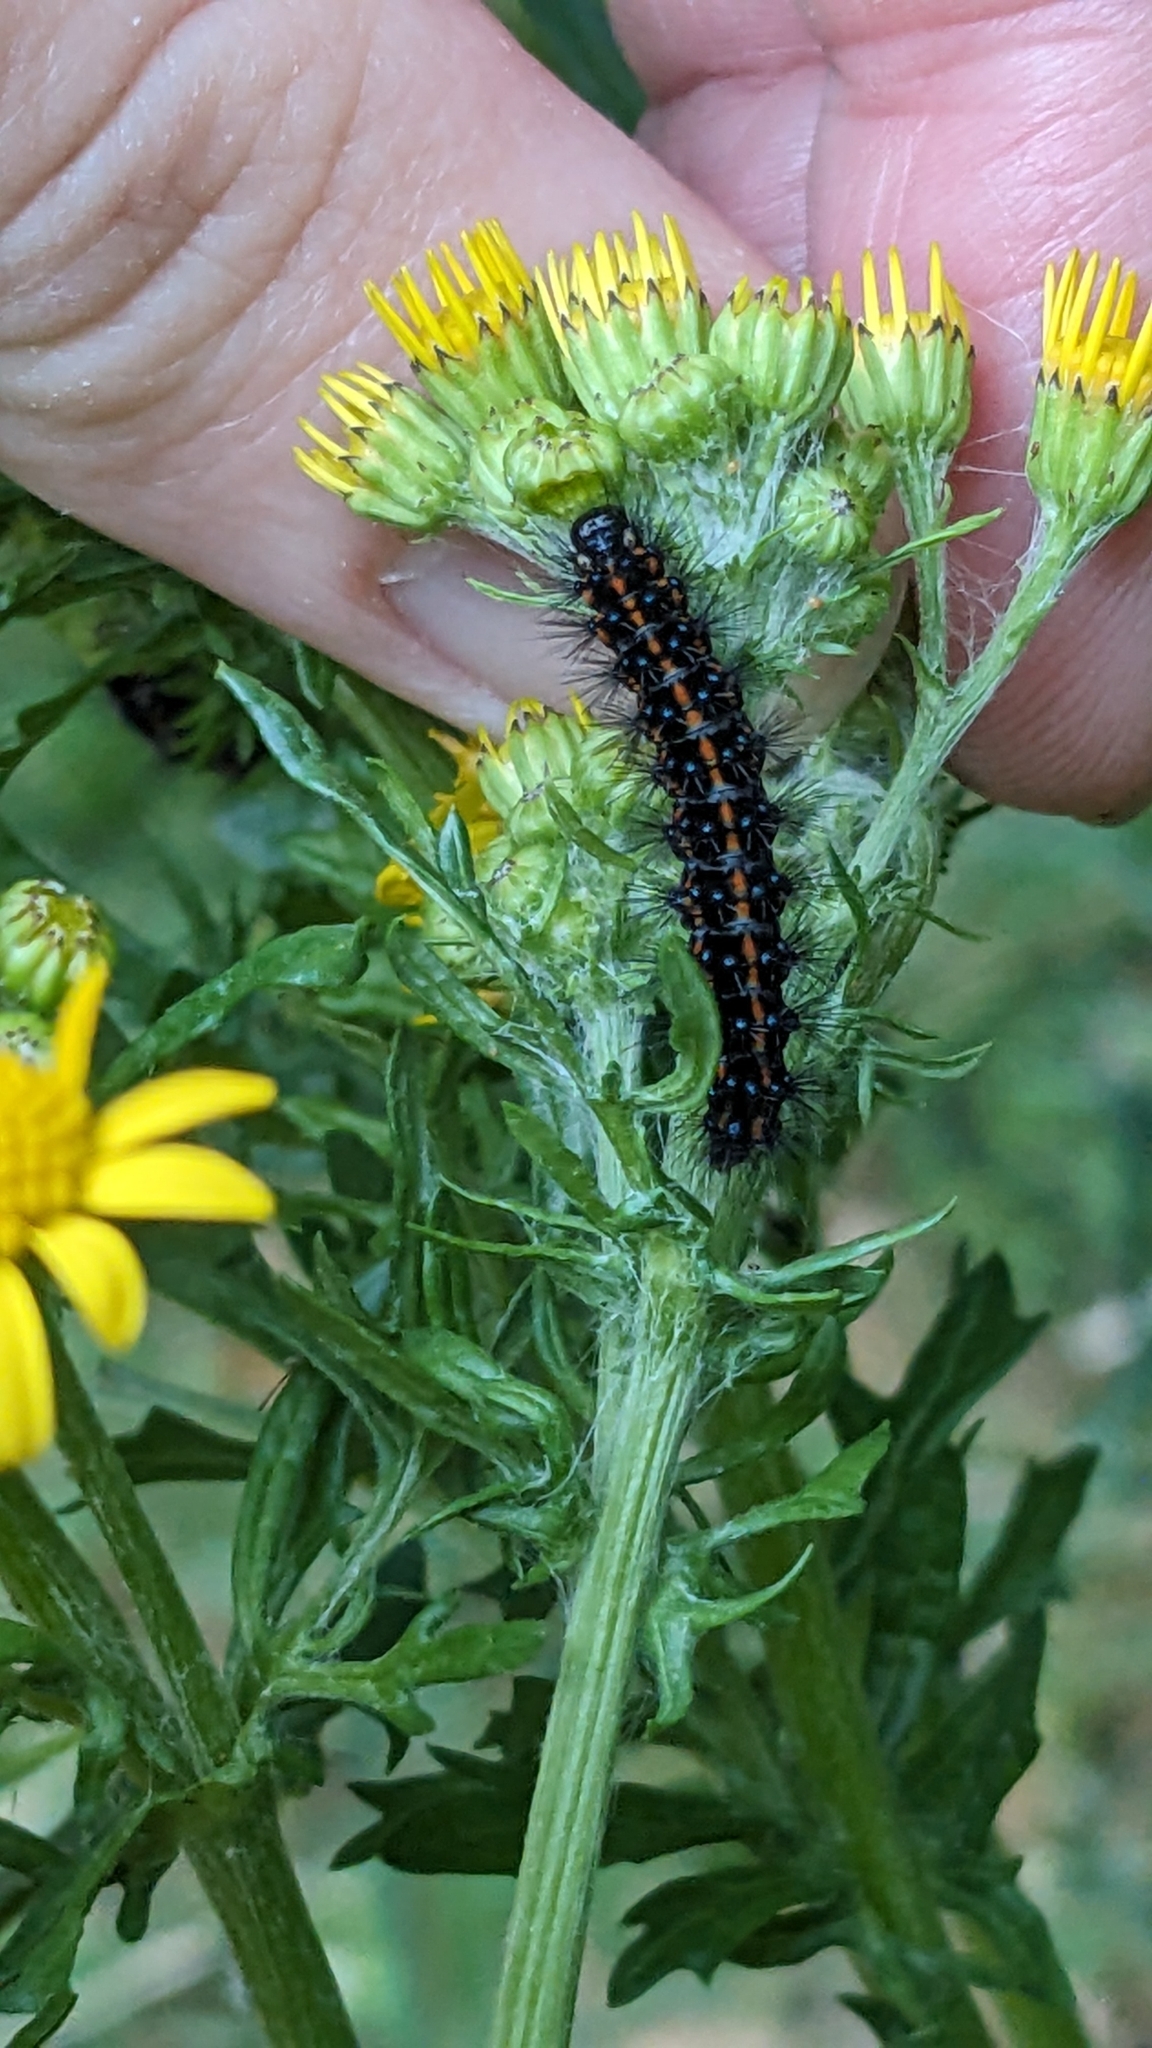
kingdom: Animalia
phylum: Arthropoda
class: Insecta
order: Lepidoptera
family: Erebidae
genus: Nyctemera
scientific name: Nyctemera annulatum
